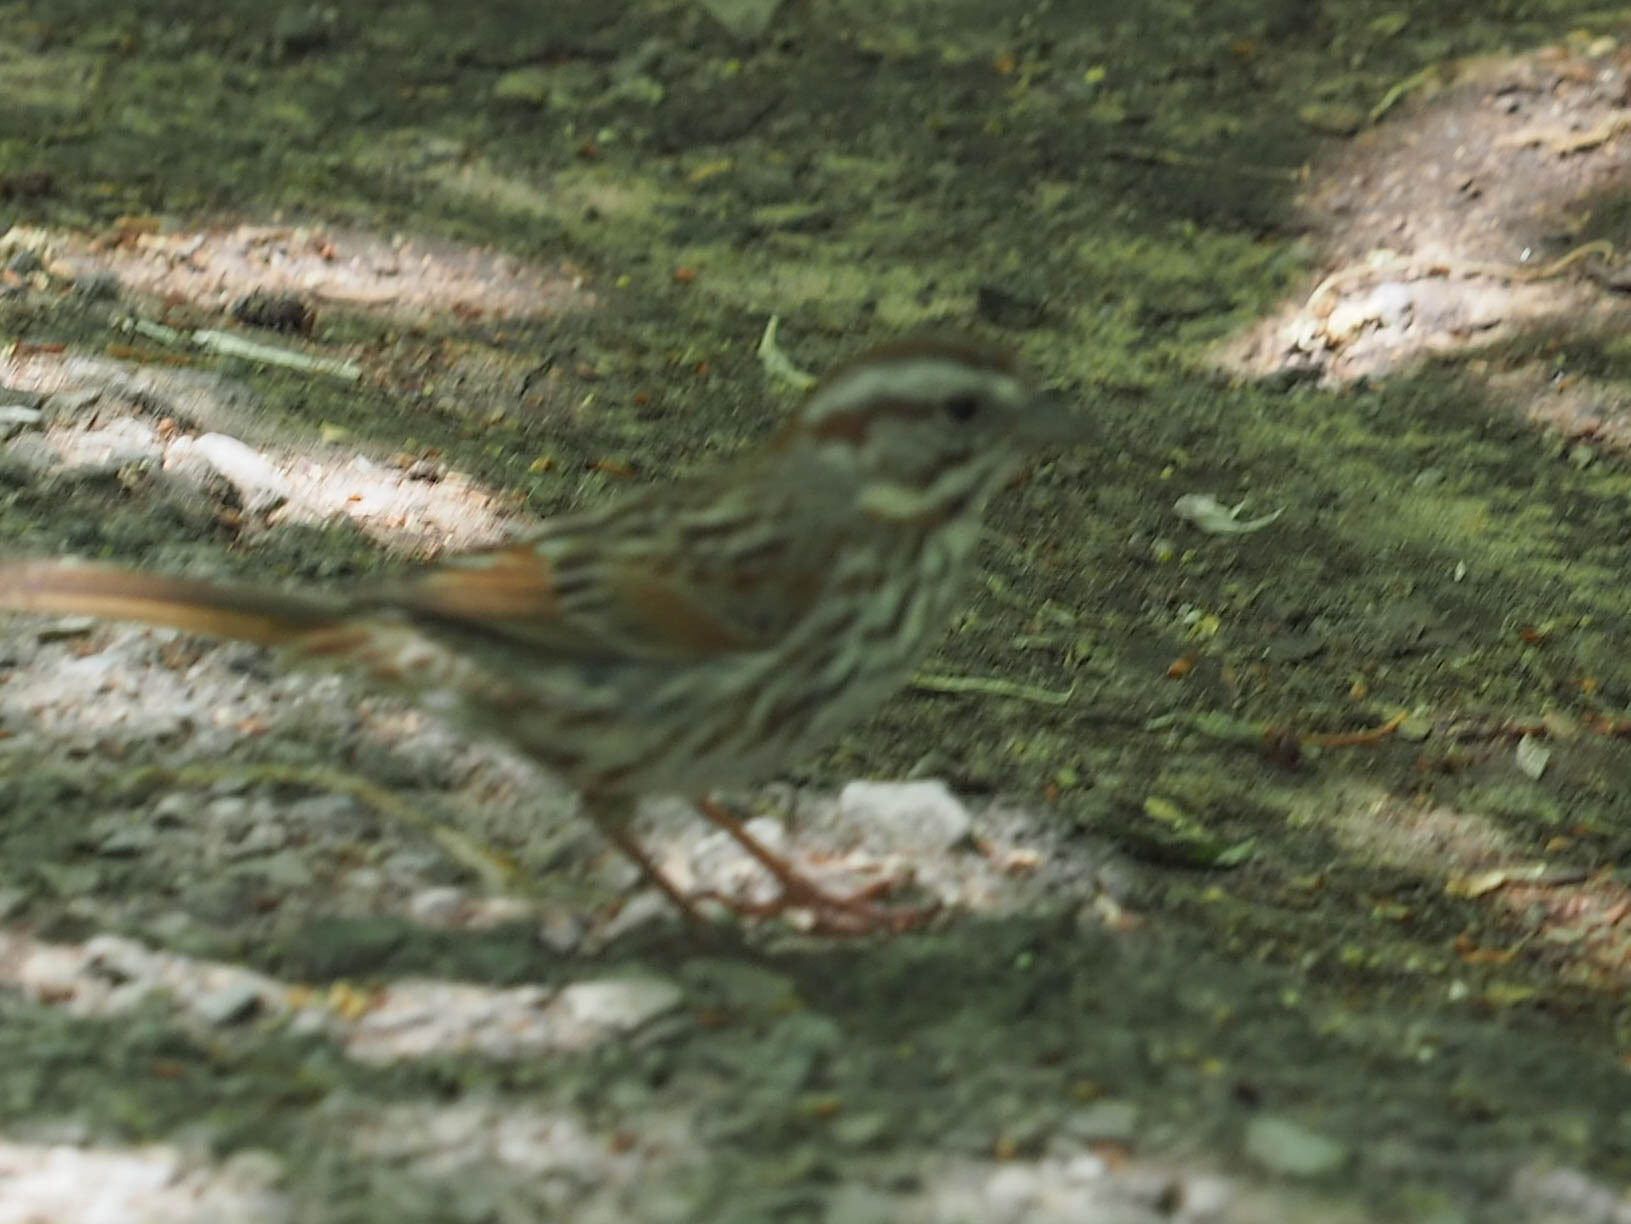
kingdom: Animalia
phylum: Chordata
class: Aves
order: Passeriformes
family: Passerellidae
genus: Melospiza
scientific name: Melospiza melodia
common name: Song sparrow
